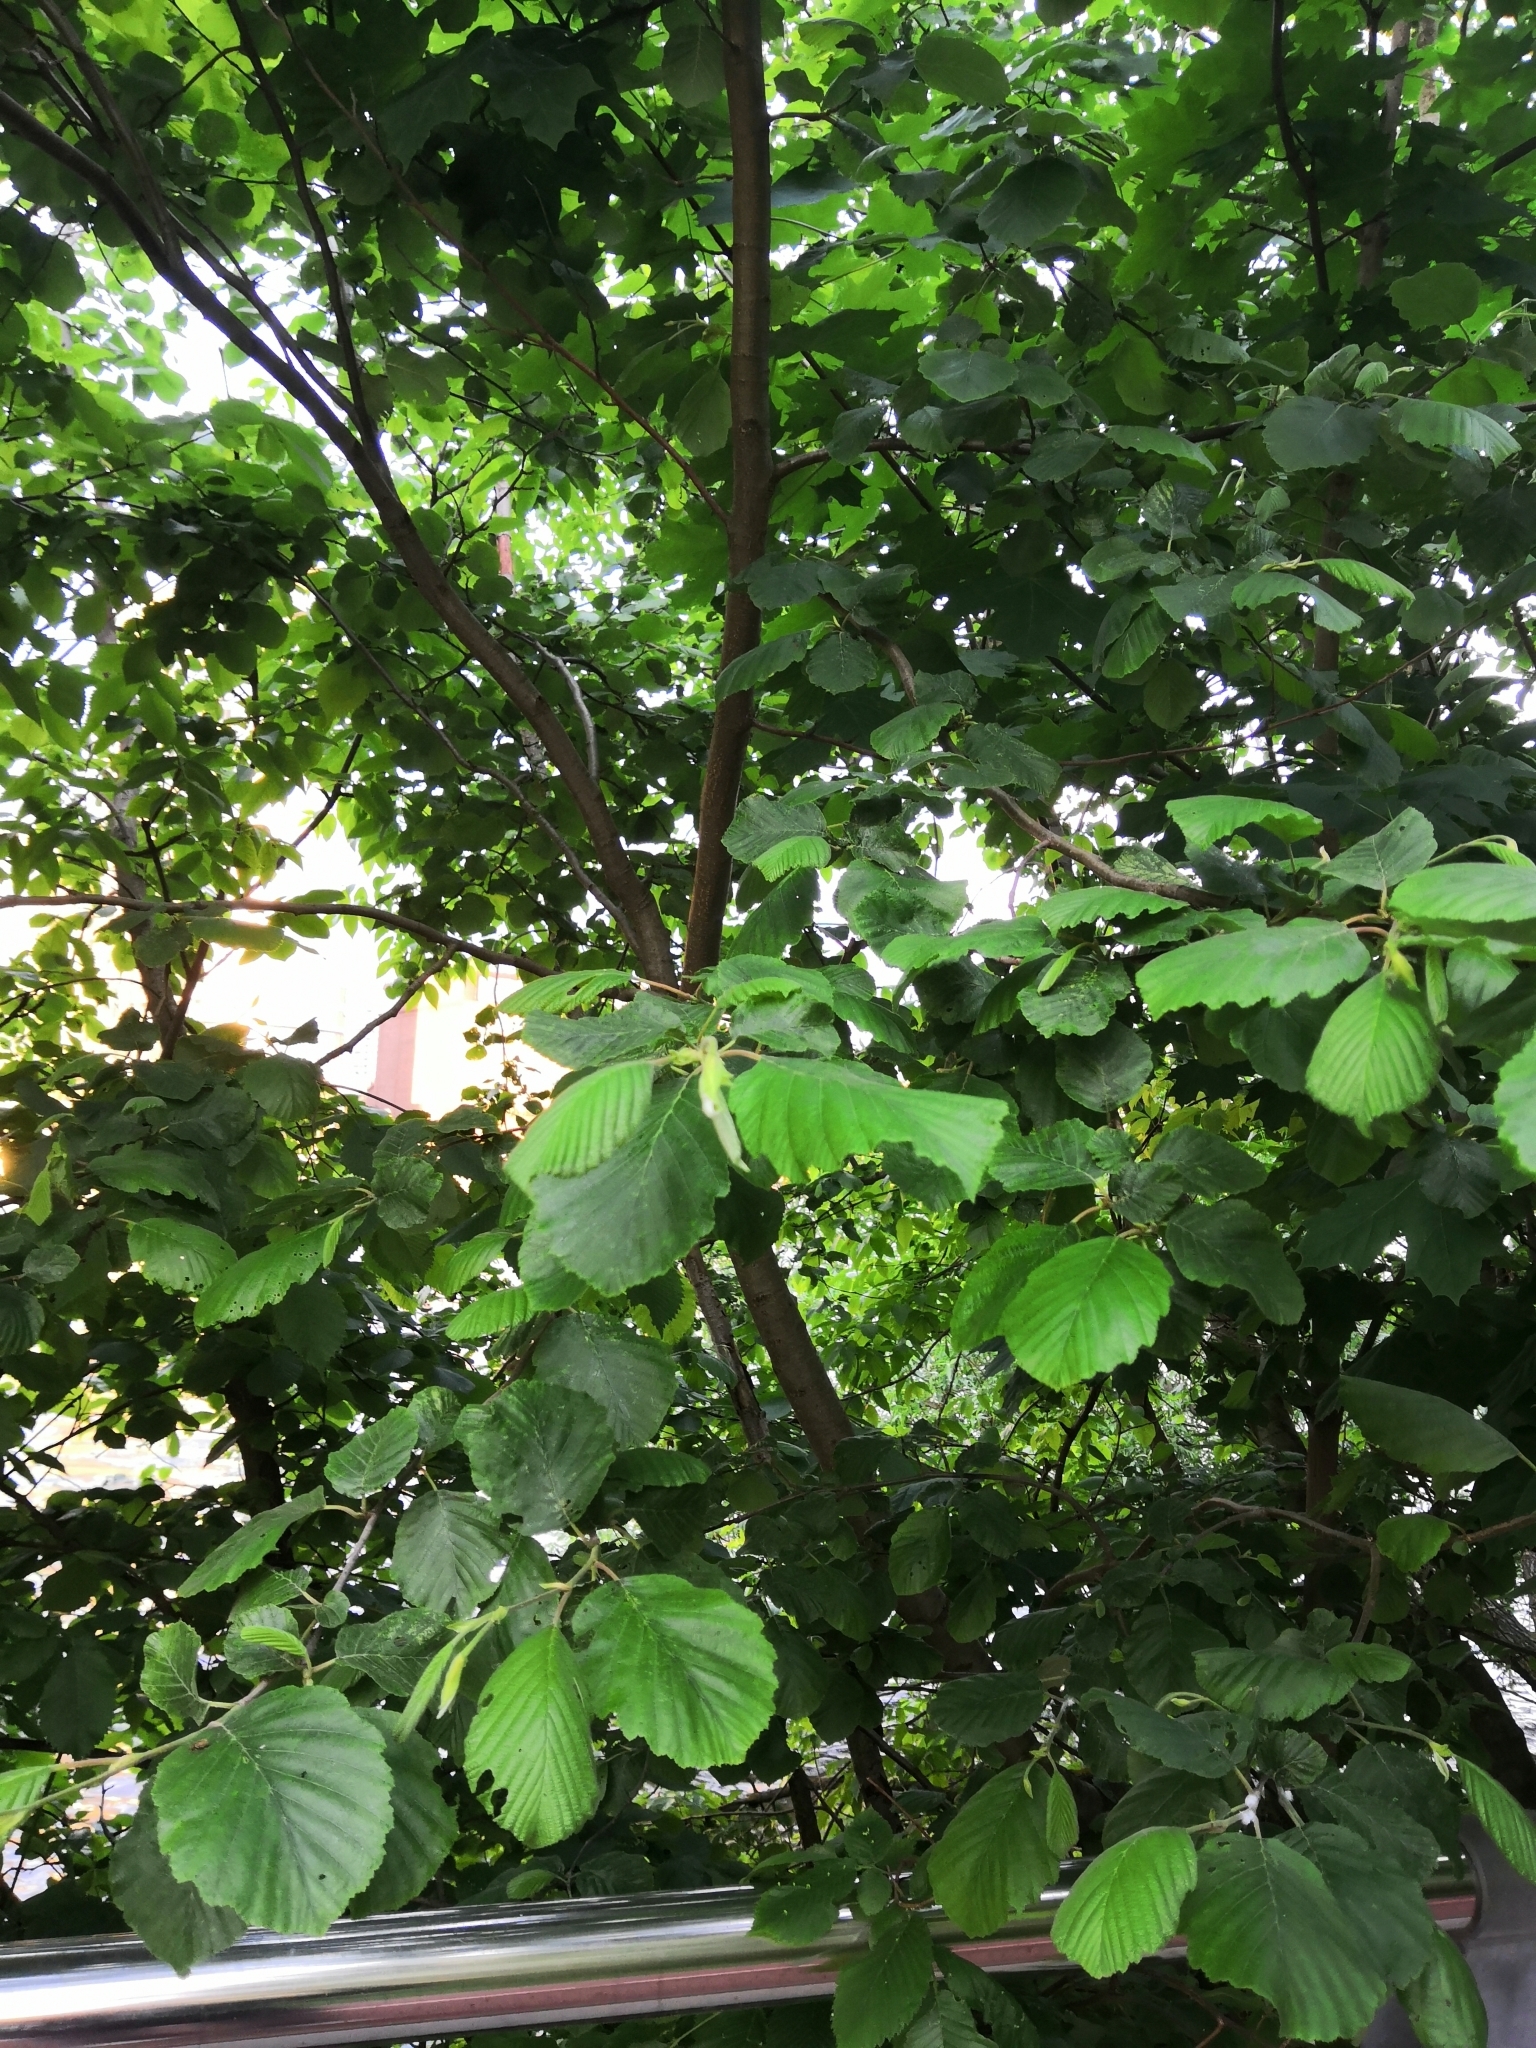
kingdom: Plantae
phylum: Tracheophyta
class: Magnoliopsida
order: Fagales
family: Betulaceae
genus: Alnus
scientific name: Alnus incana
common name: Grey alder
